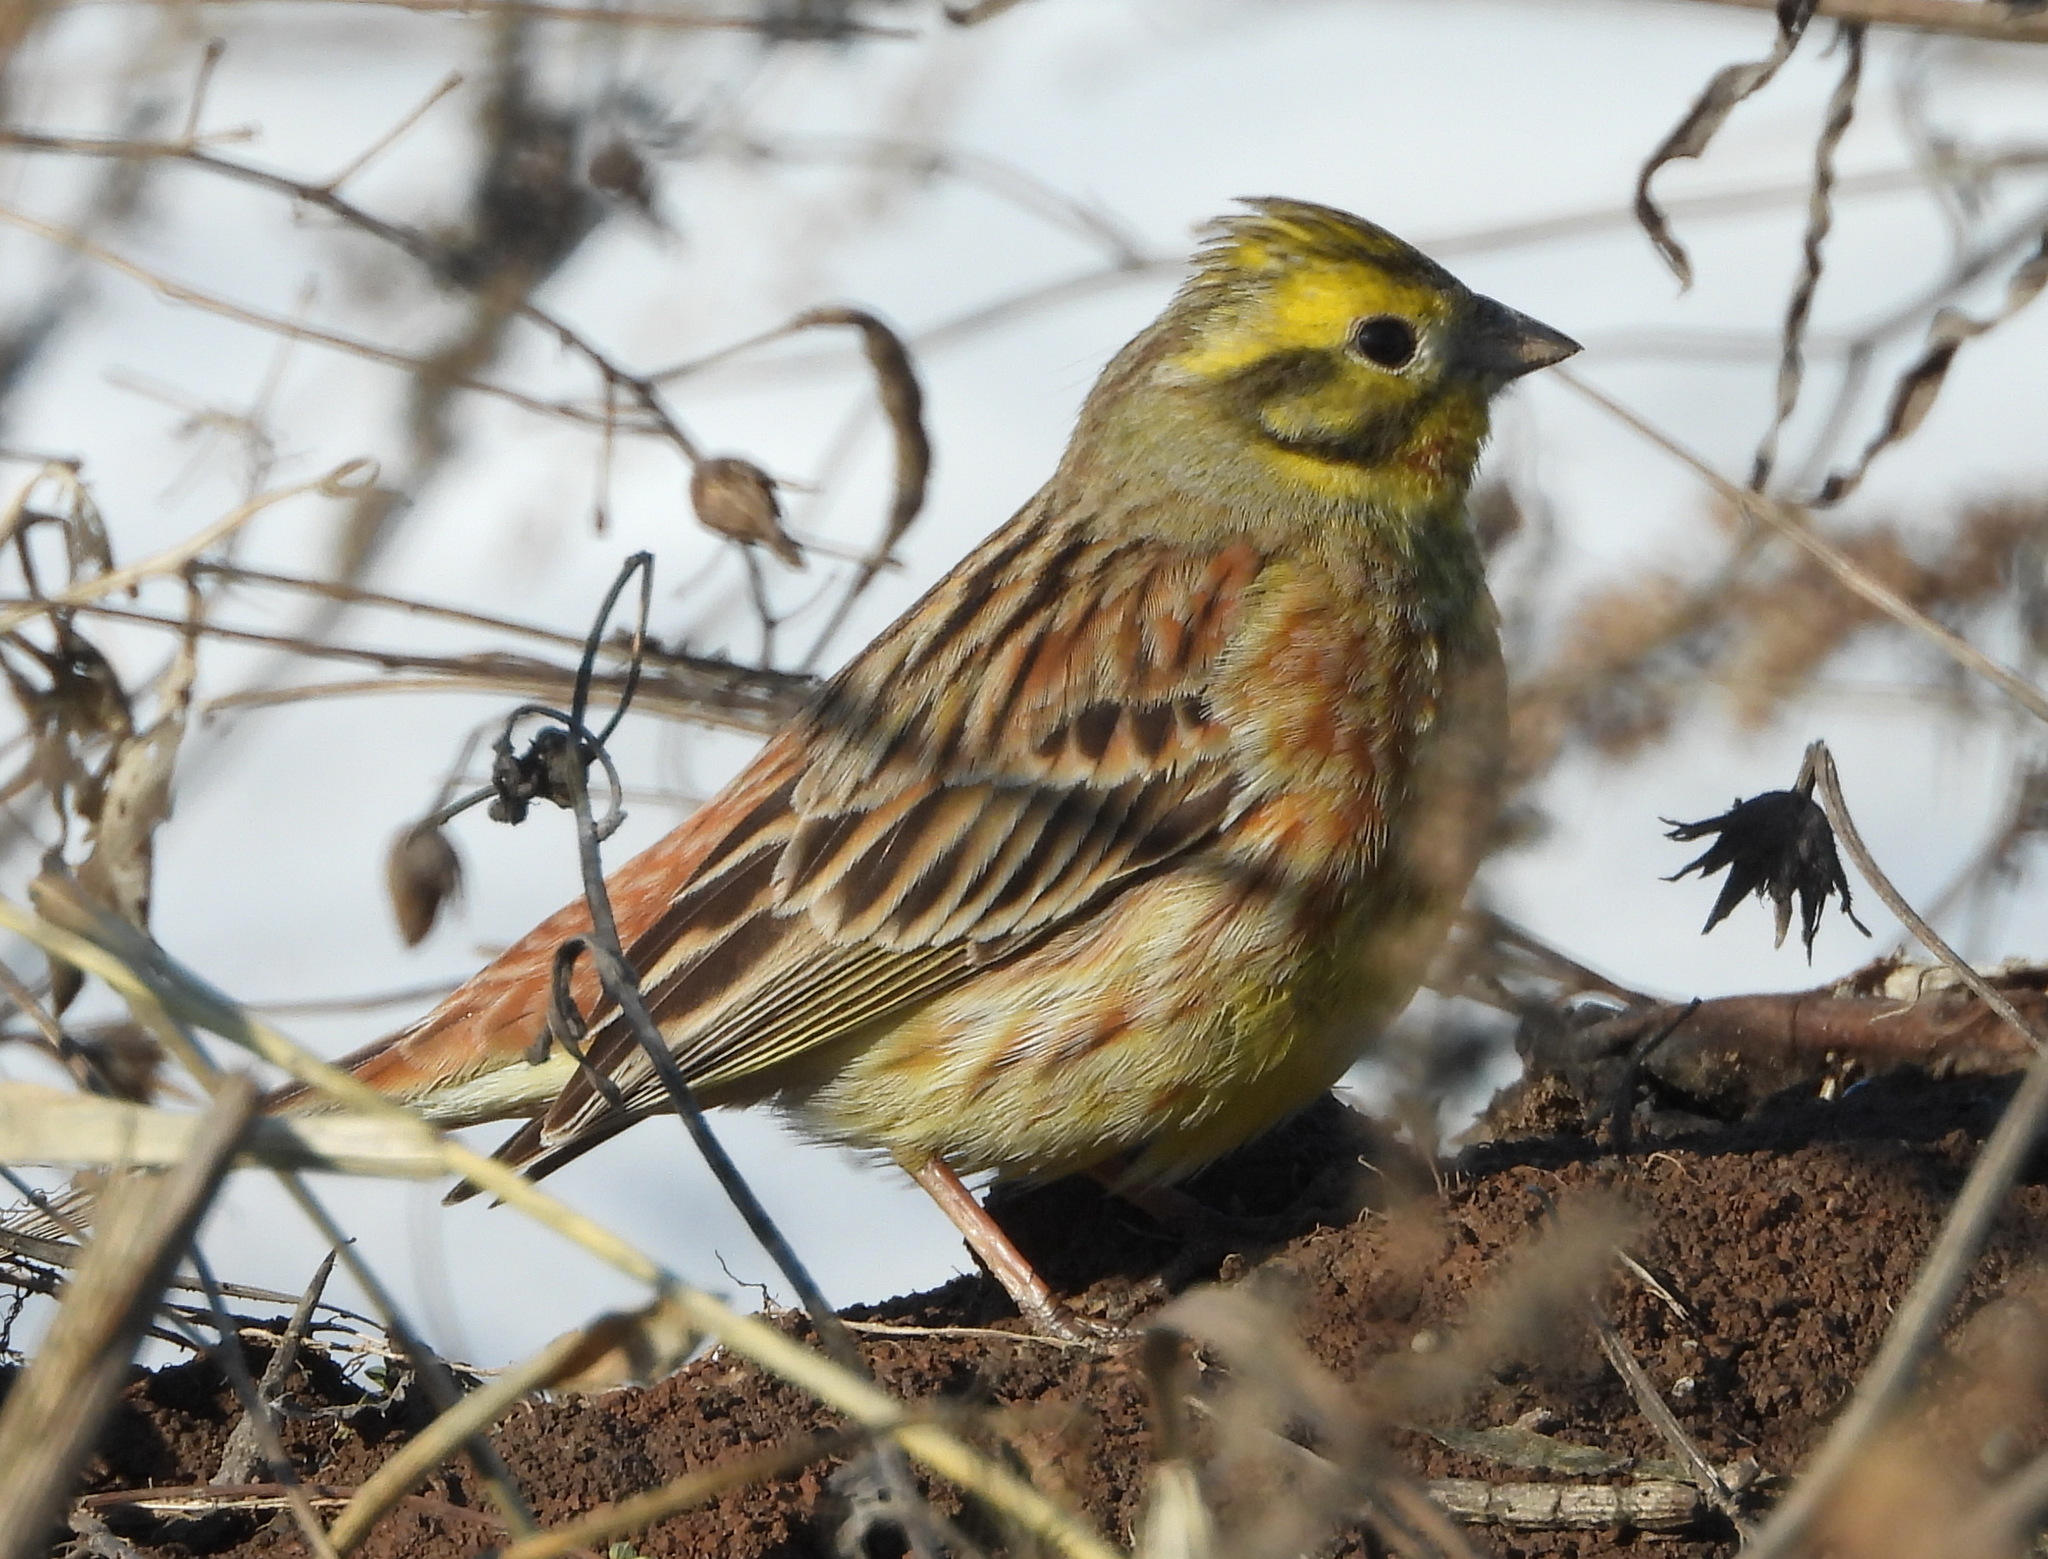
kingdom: Animalia
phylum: Chordata
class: Aves
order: Passeriformes
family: Emberizidae
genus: Emberiza
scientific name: Emberiza citrinella
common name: Yellowhammer
